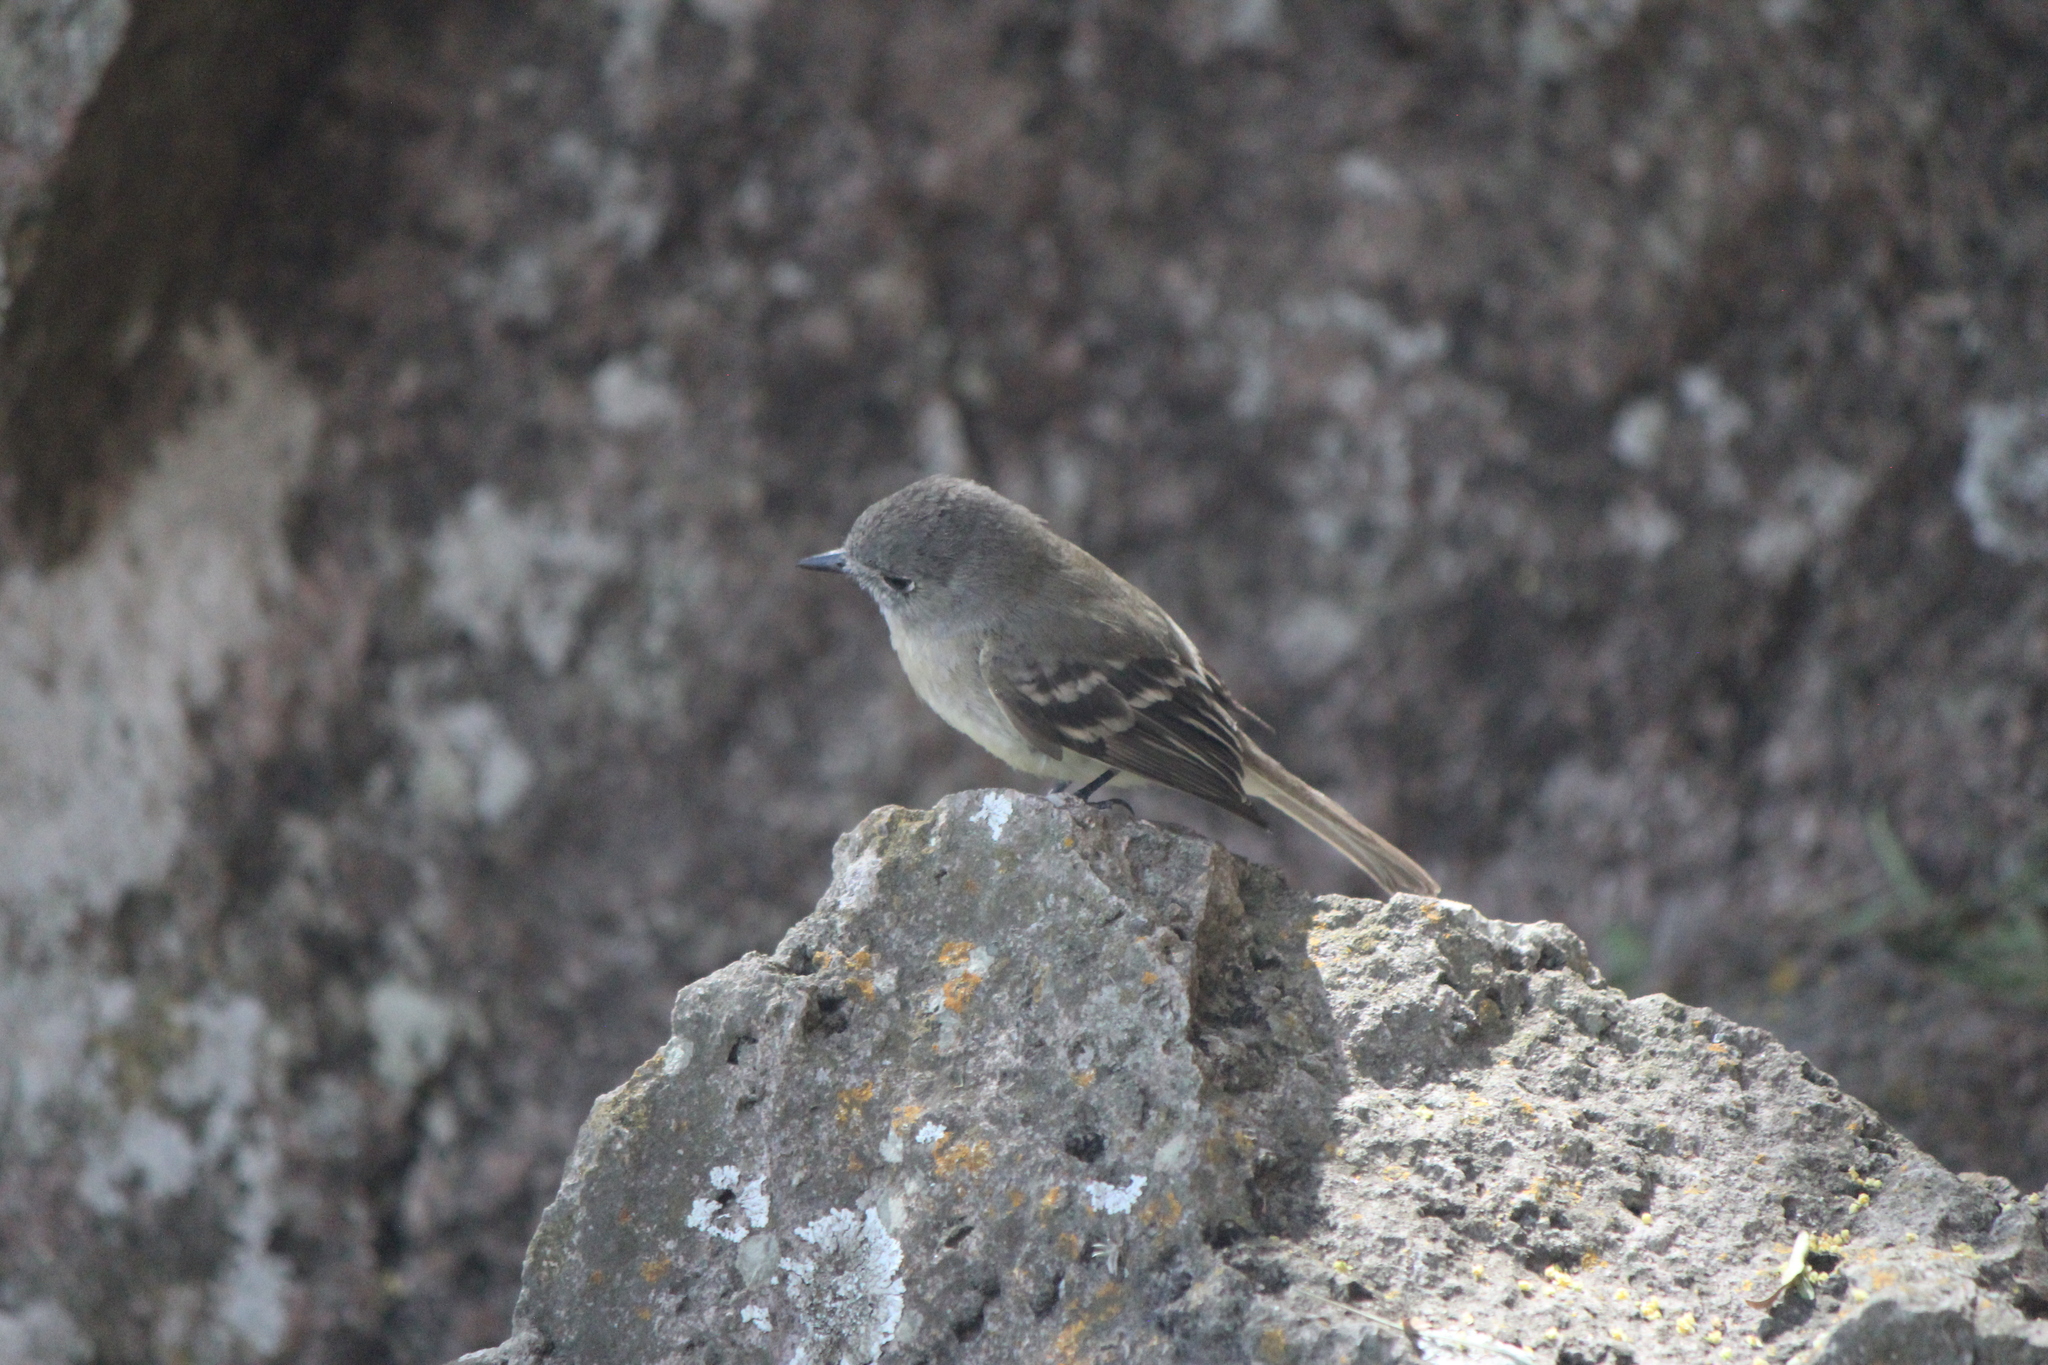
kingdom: Animalia
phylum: Chordata
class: Aves
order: Passeriformes
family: Tyrannidae
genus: Empidonax
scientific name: Empidonax wrightii
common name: Gray flycatcher
